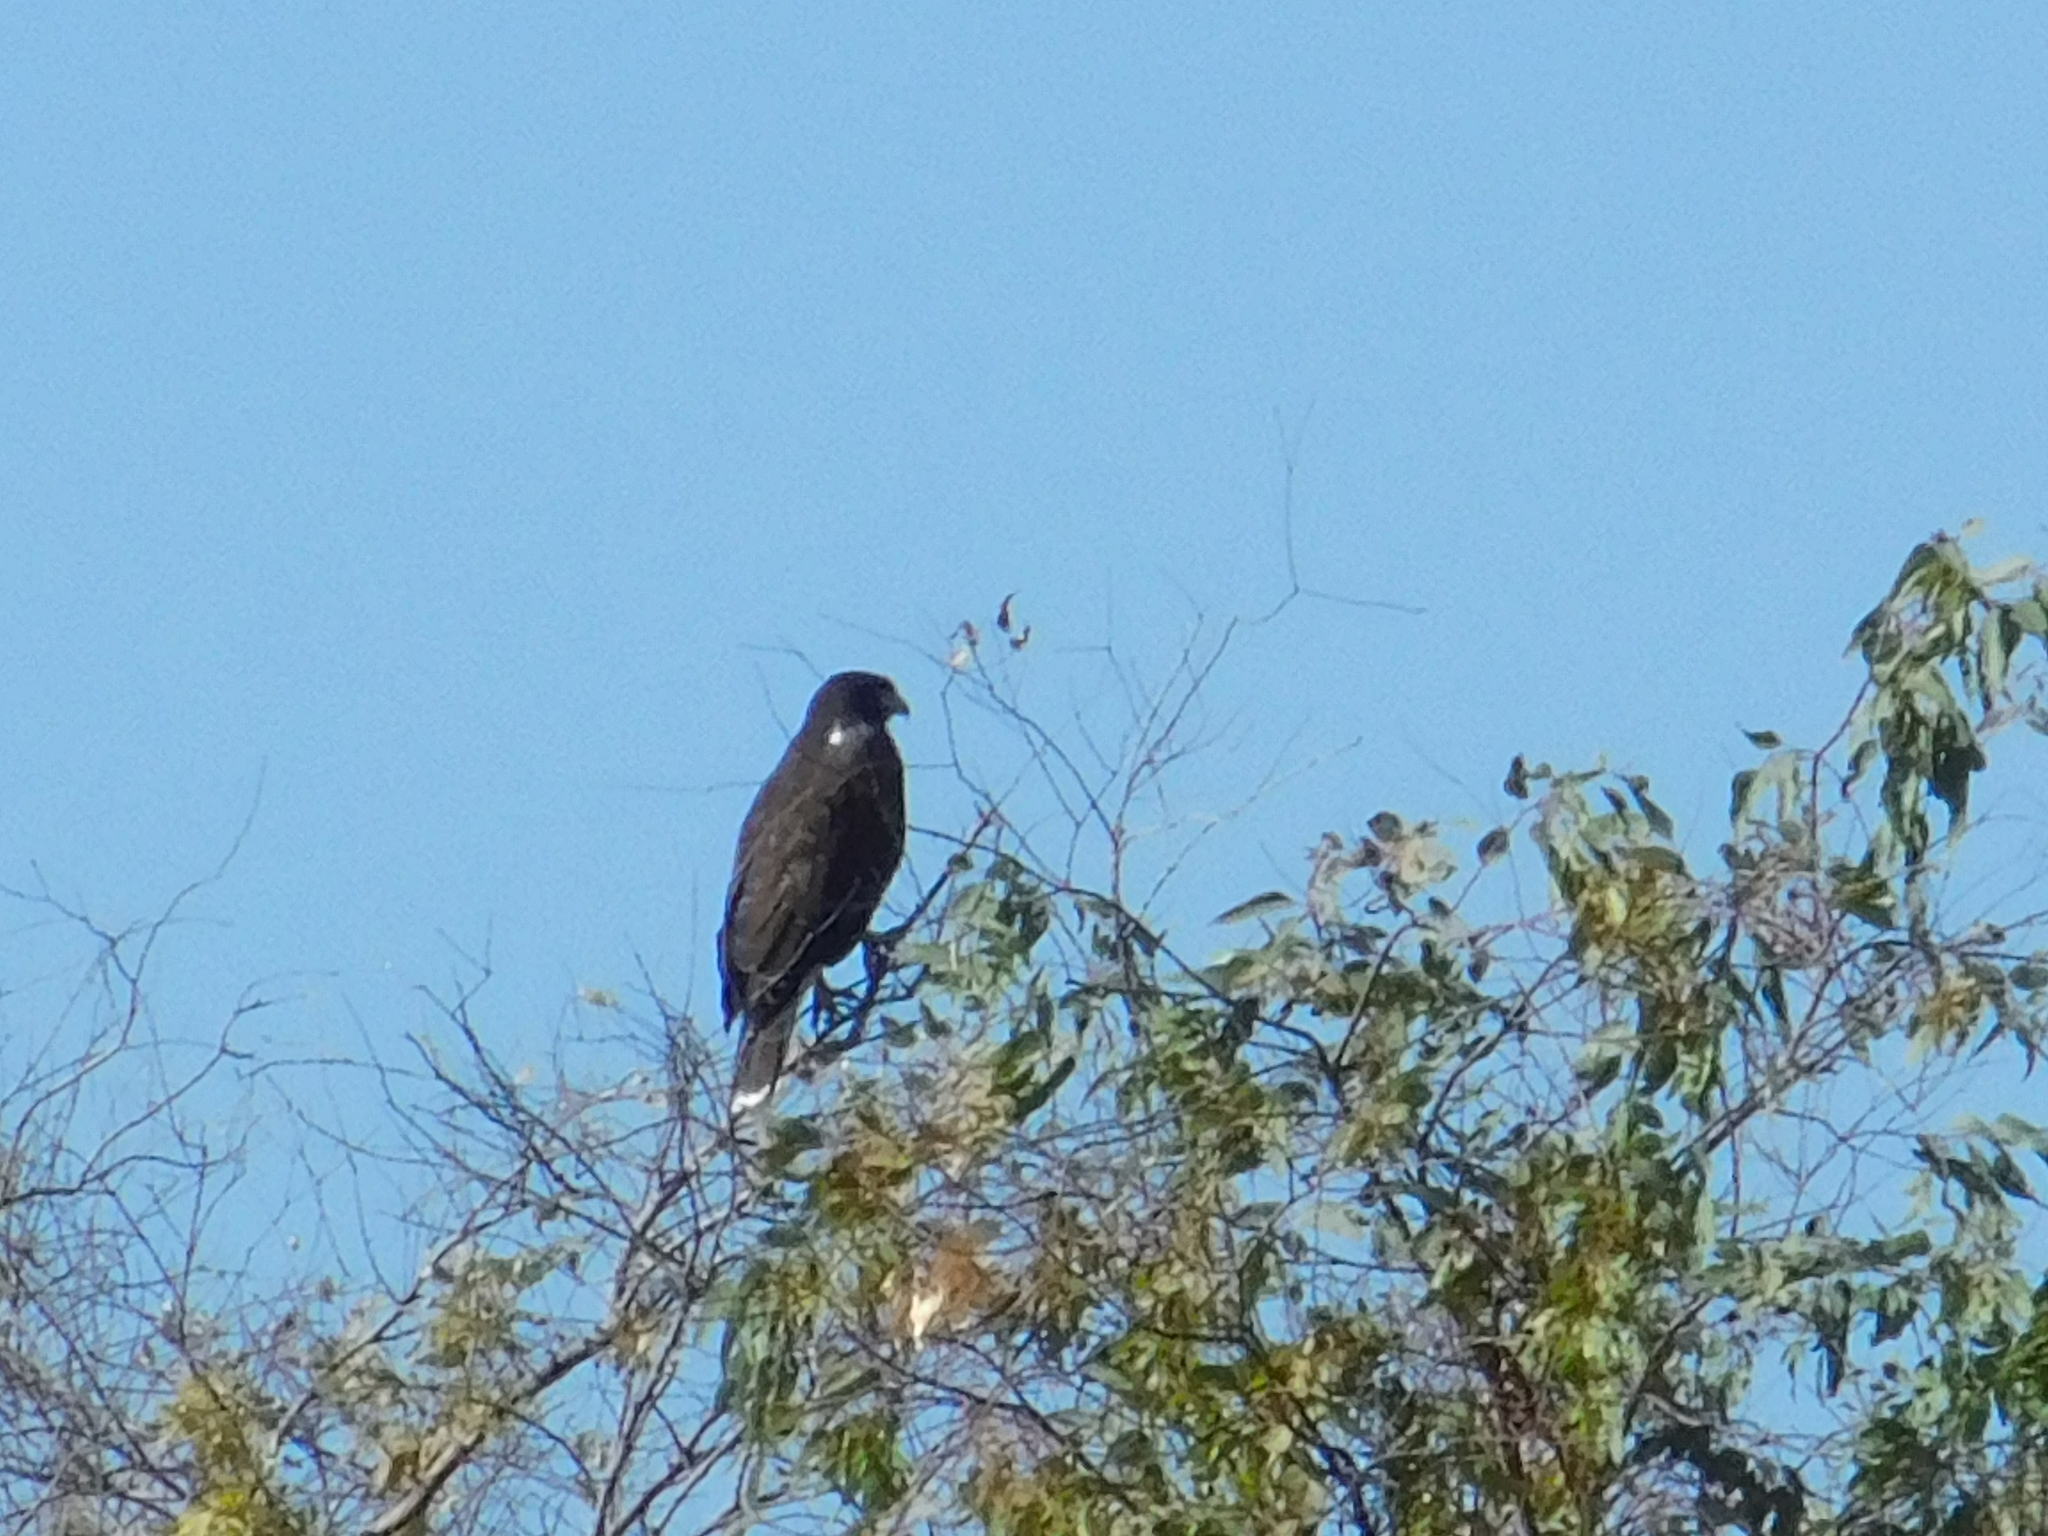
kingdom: Animalia
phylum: Chordata
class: Aves
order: Accipitriformes
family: Accipitridae
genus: Parabuteo
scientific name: Parabuteo unicinctus
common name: Harris's hawk
